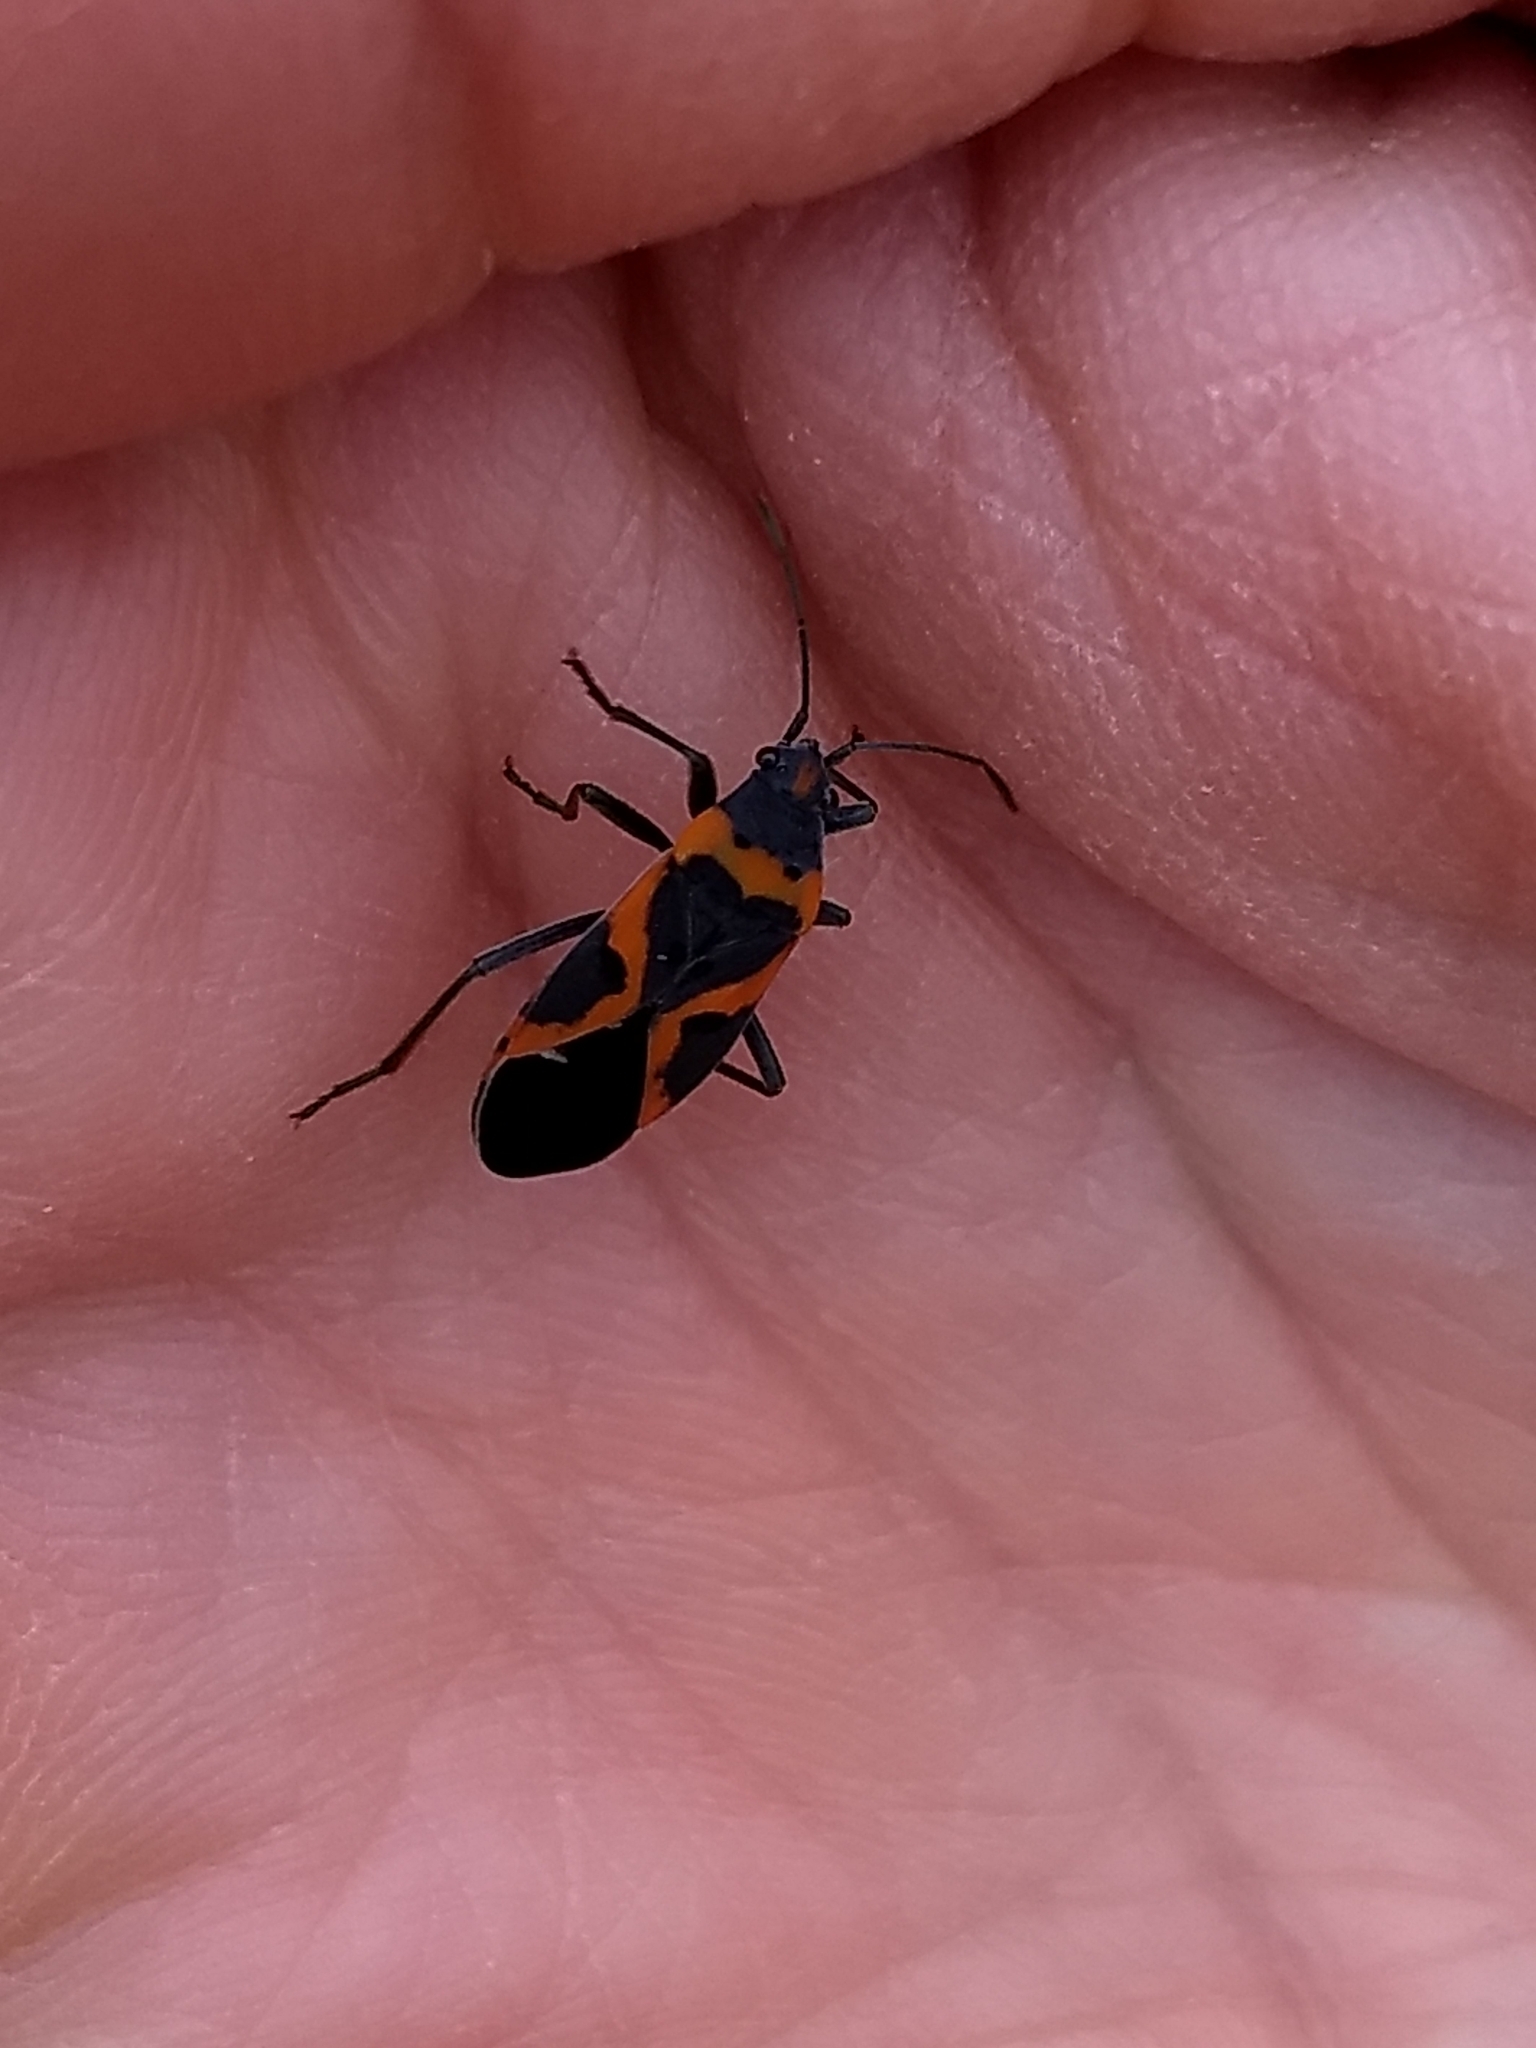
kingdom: Animalia
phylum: Arthropoda
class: Insecta
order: Hemiptera
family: Lygaeidae
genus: Lygaeus
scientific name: Lygaeus kalmii
